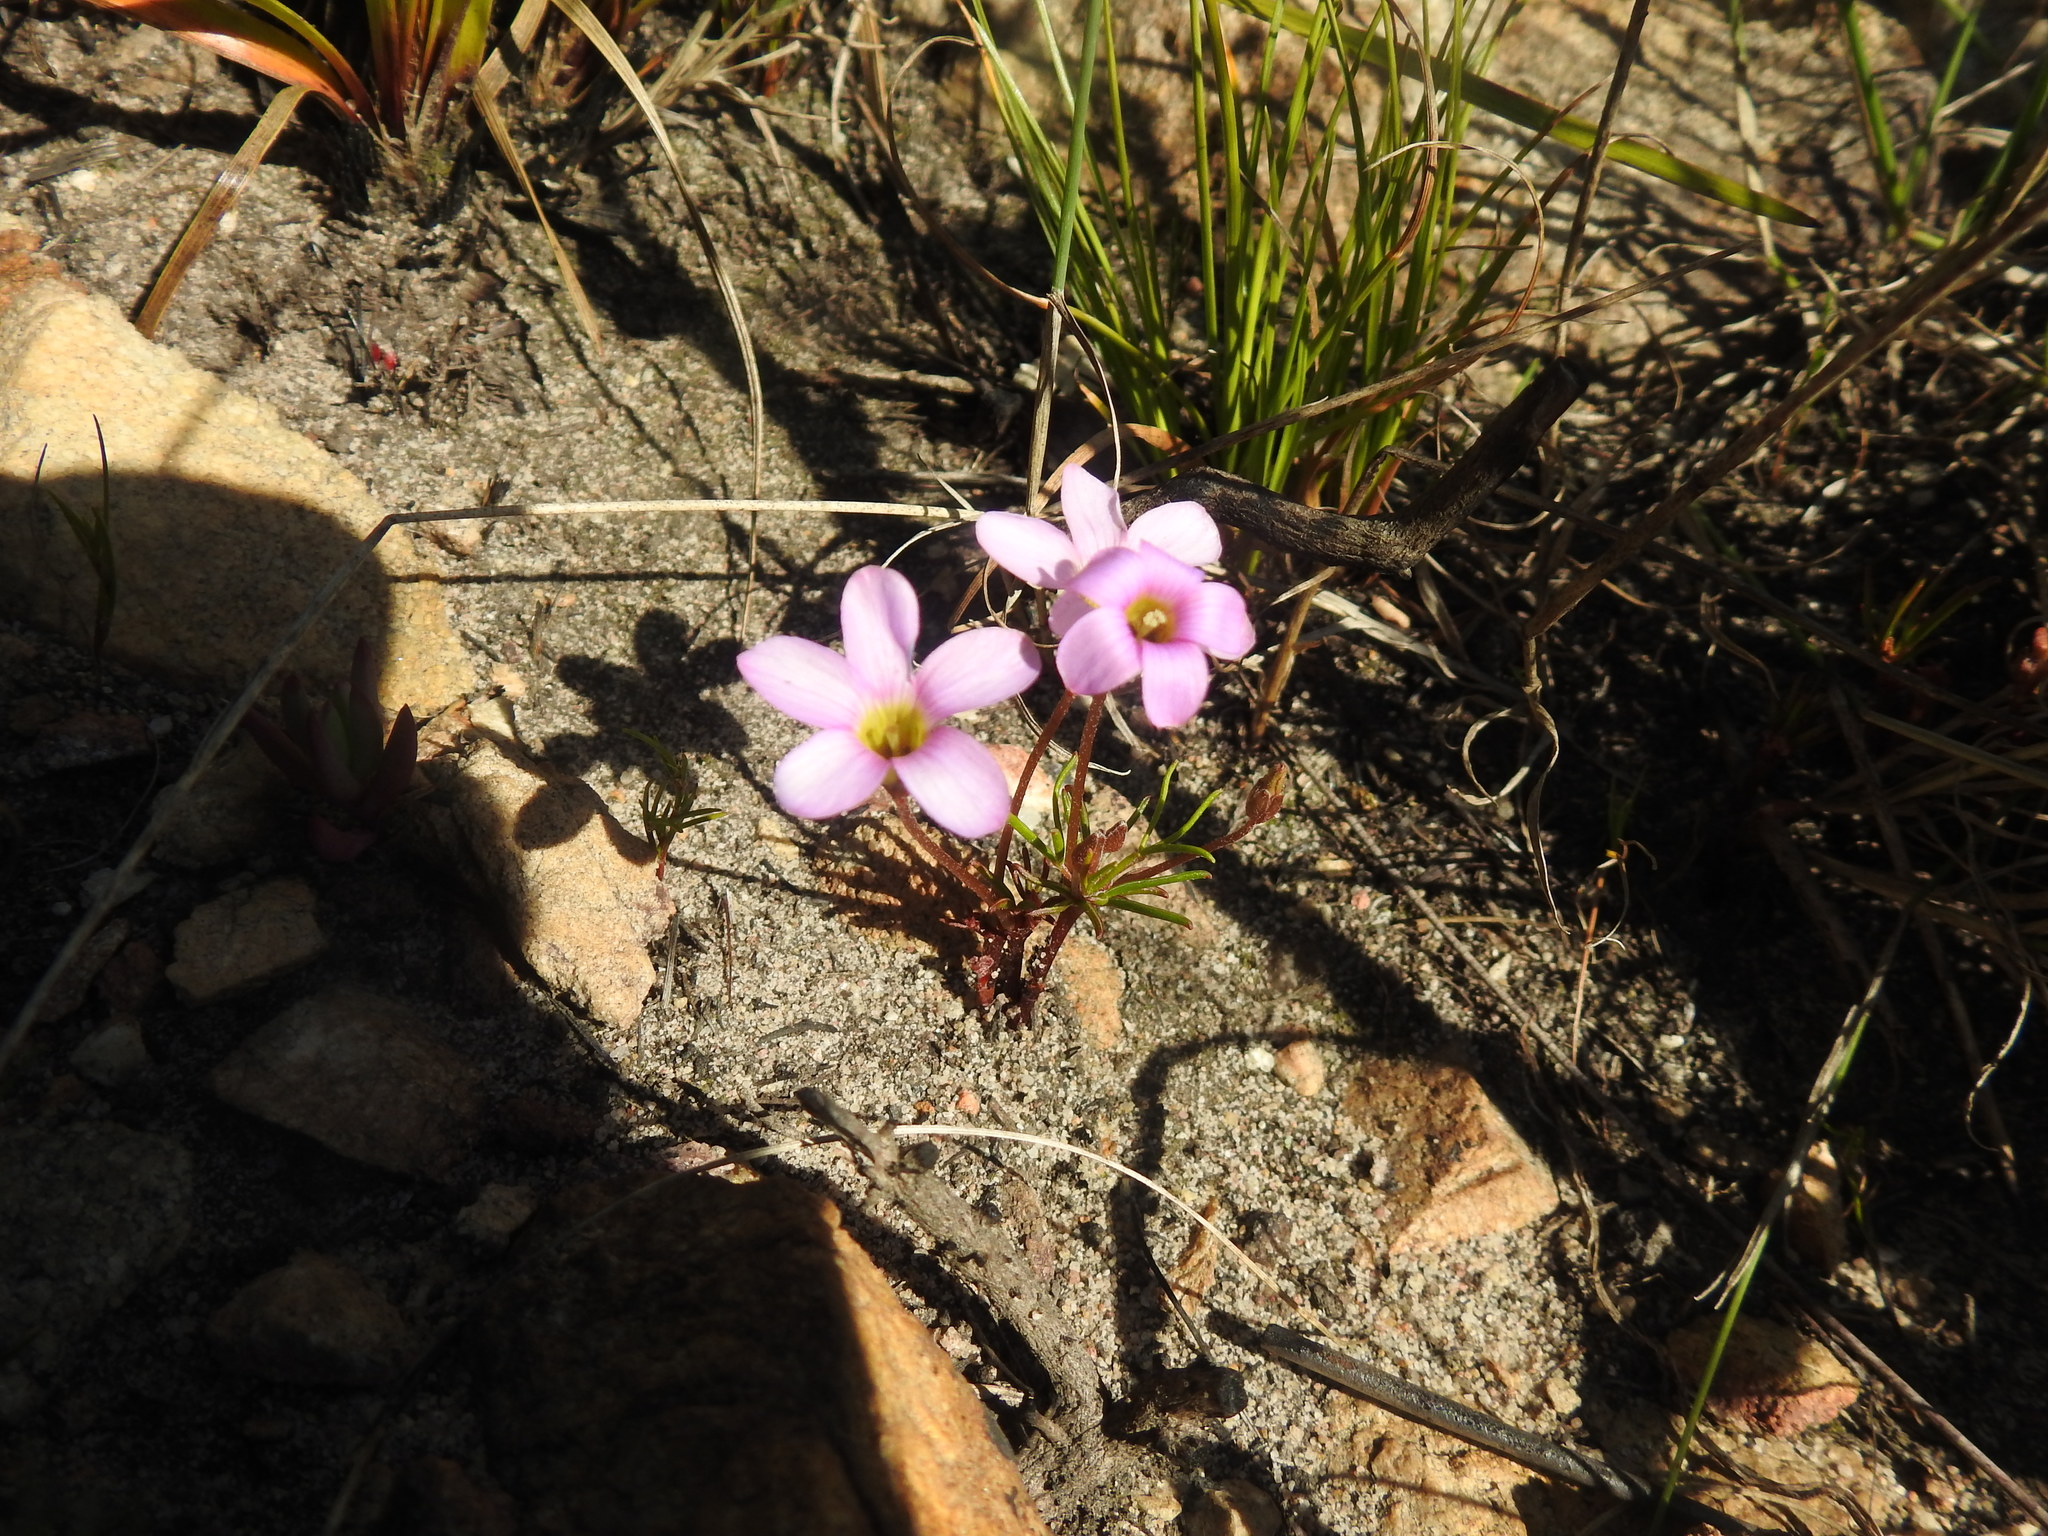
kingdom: Plantae
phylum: Tracheophyta
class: Magnoliopsida
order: Oxalidales
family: Oxalidaceae
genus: Oxalis
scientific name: Oxalis polyphylla
